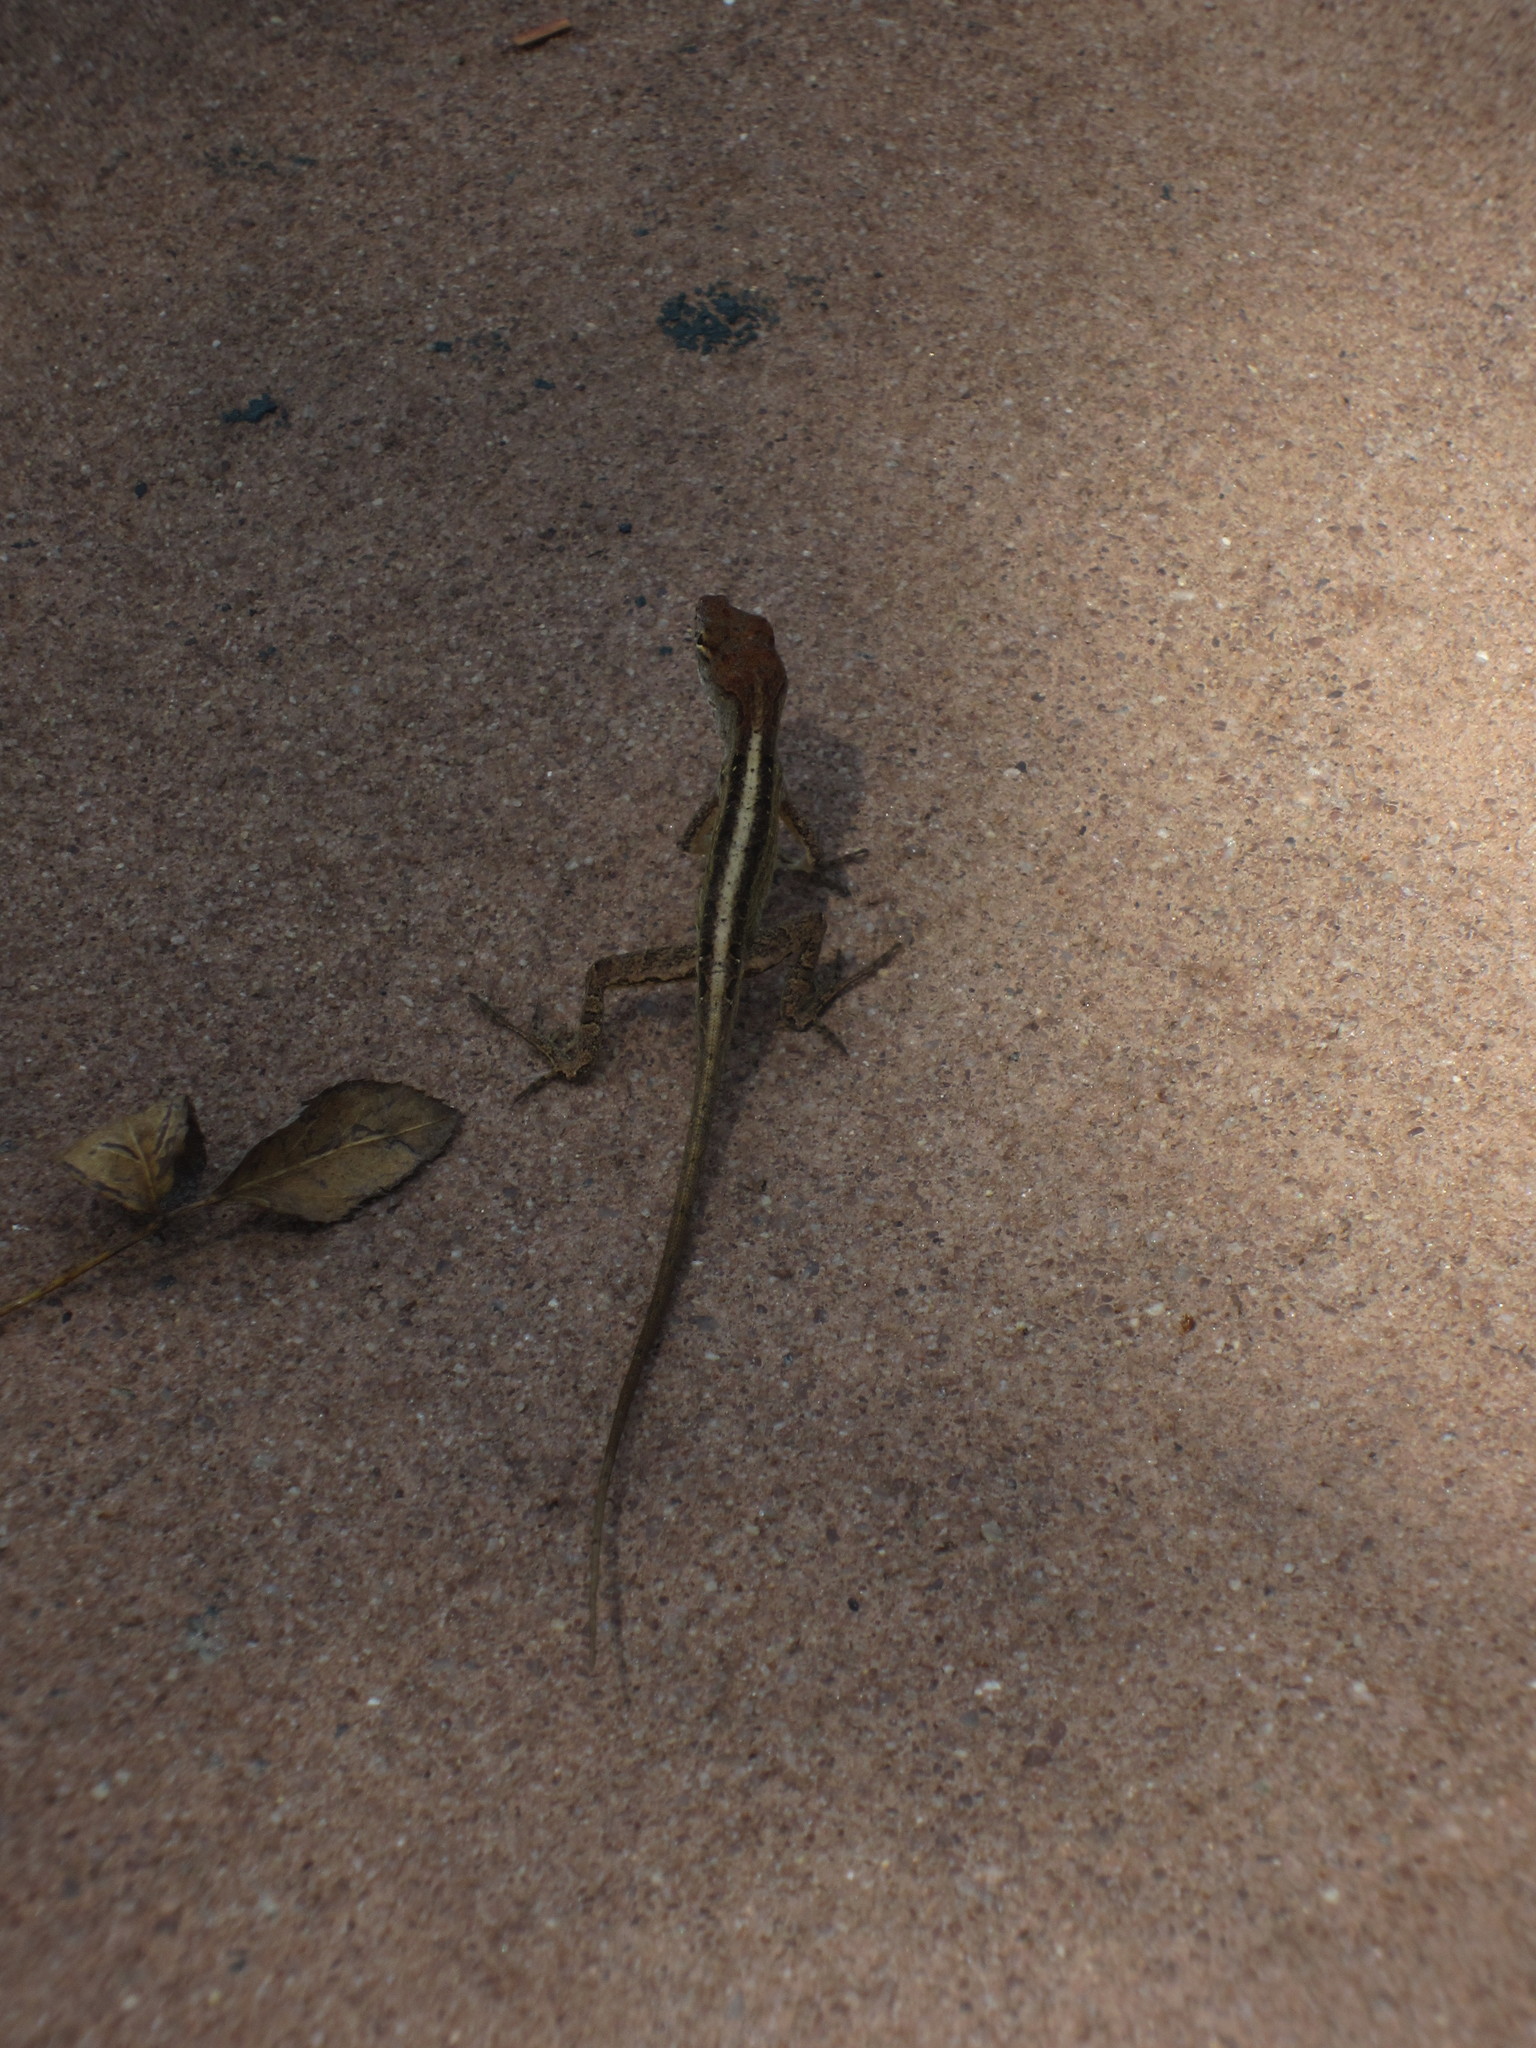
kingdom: Animalia
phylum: Chordata
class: Squamata
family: Dactyloidae
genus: Anolis
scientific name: Anolis sagrei
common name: Brown anole
